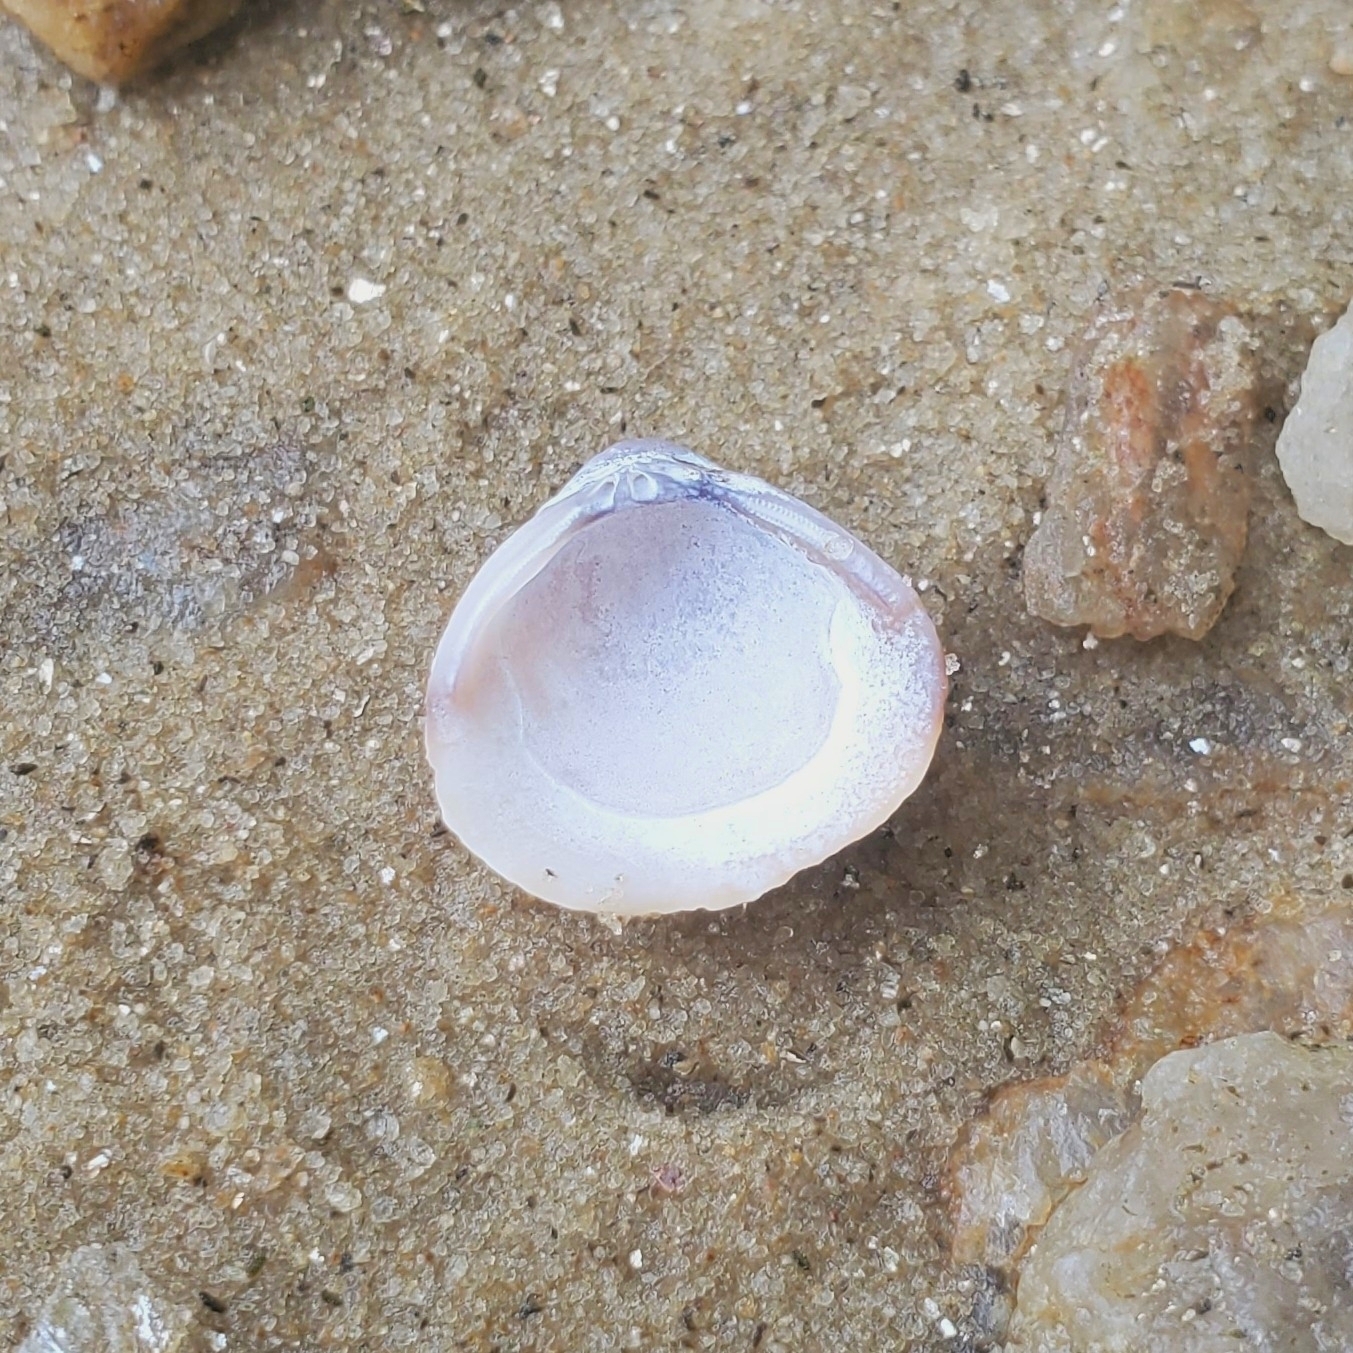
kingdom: Animalia
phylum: Mollusca
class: Bivalvia
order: Venerida
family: Cyrenidae
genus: Corbicula
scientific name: Corbicula fluminea
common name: Asian clam
